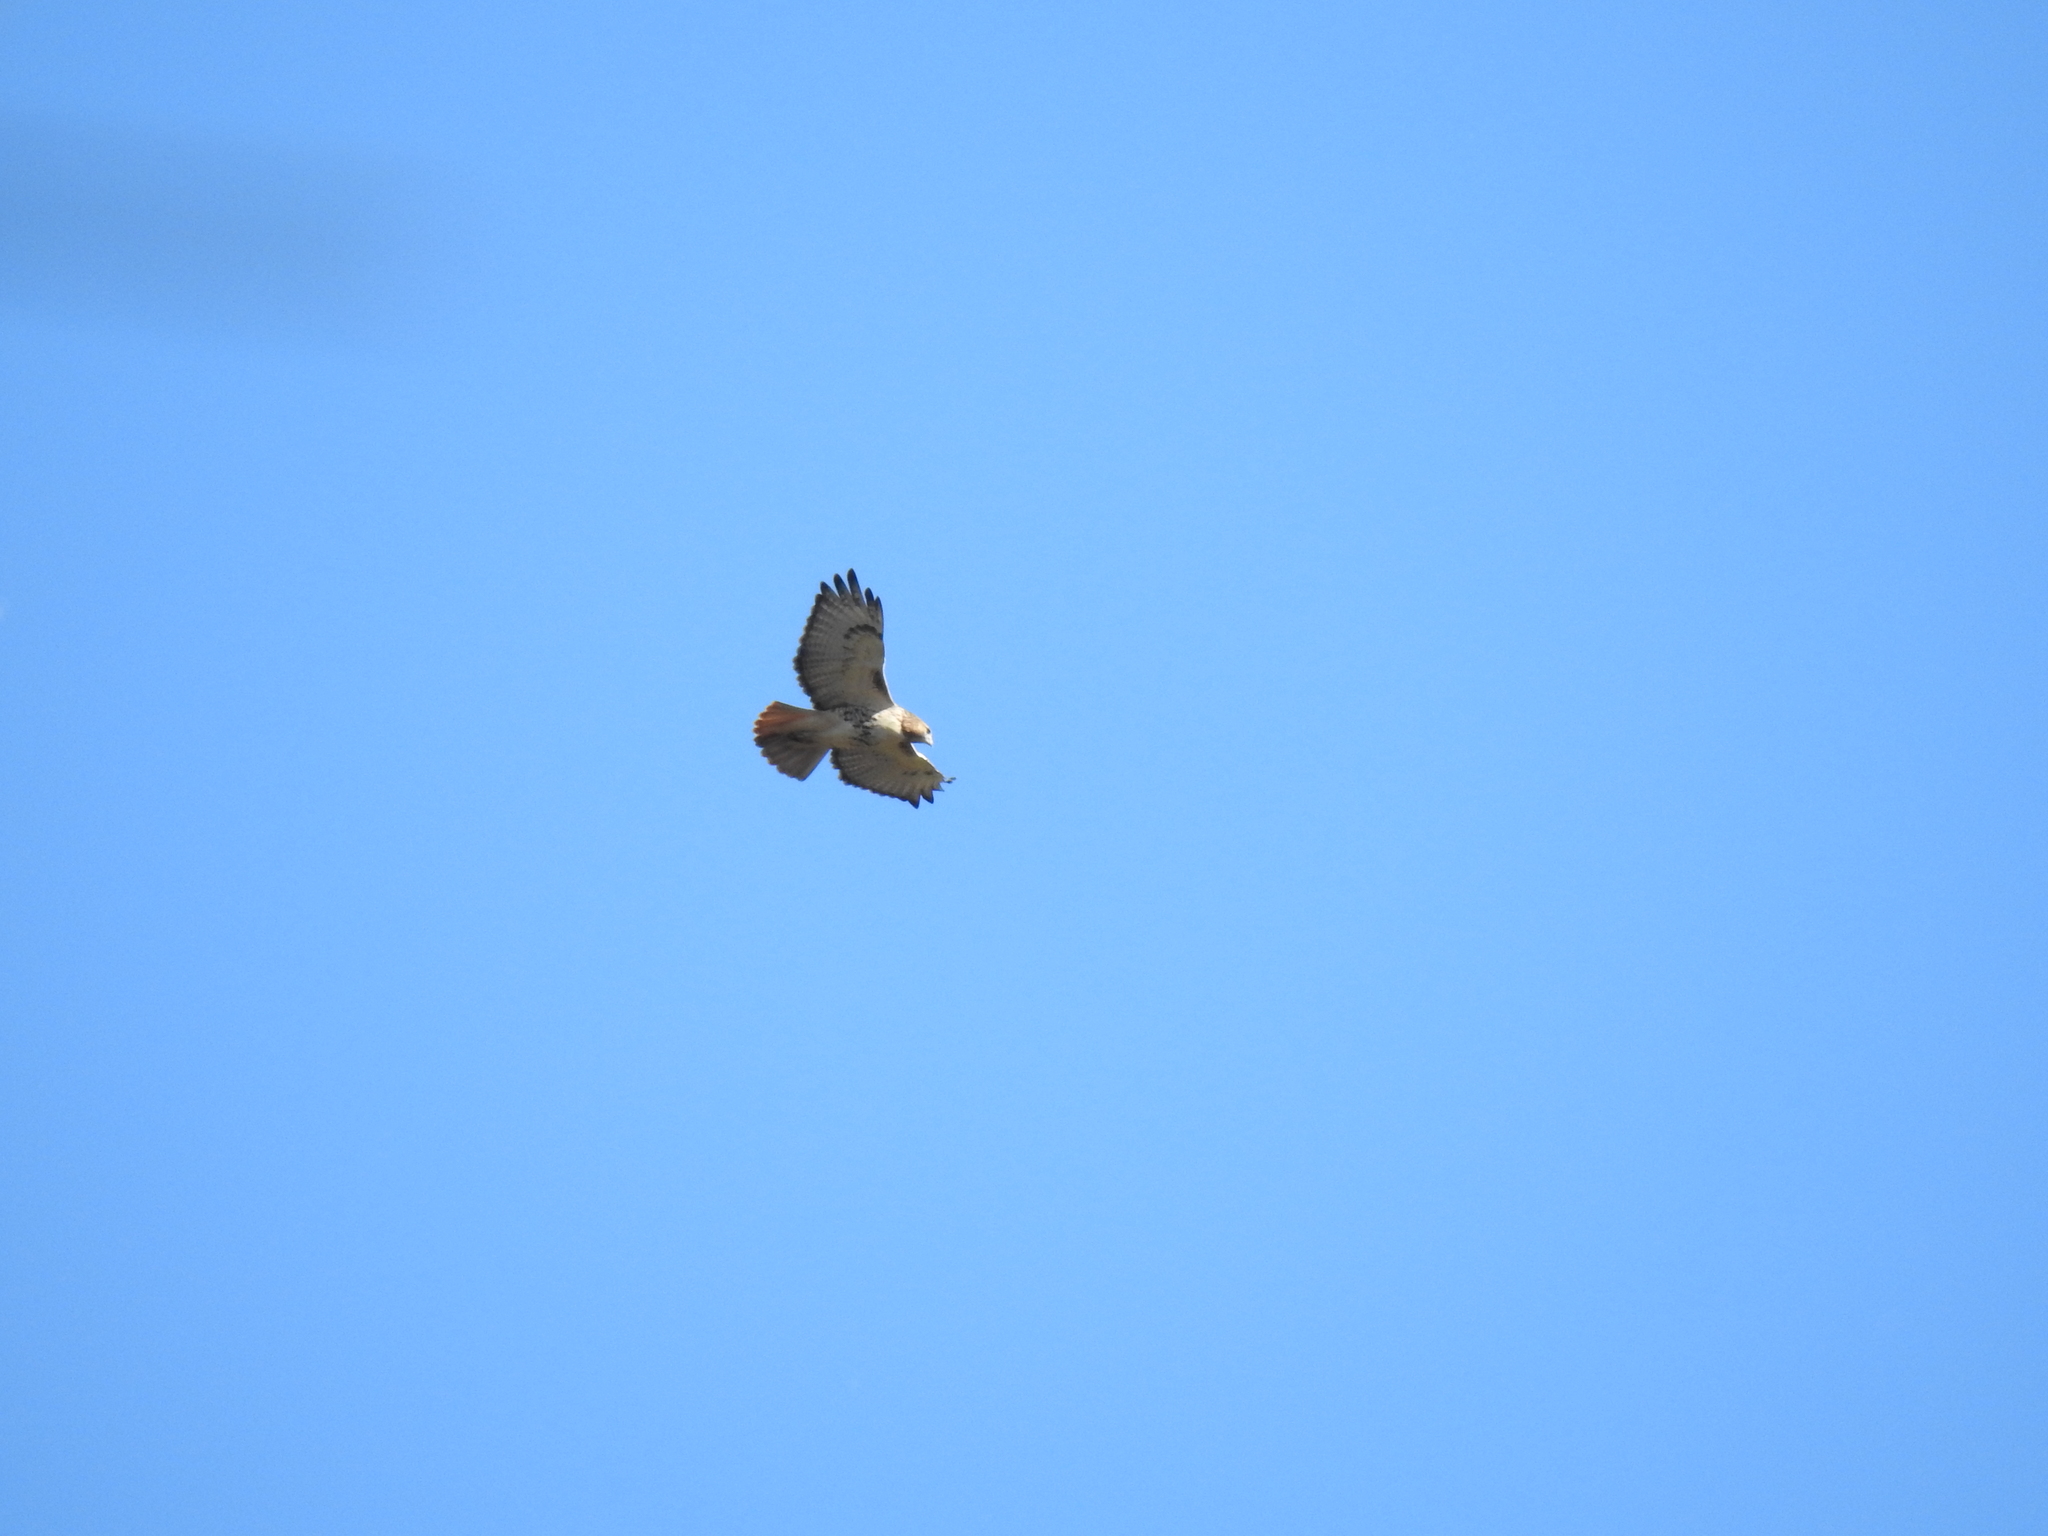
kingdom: Animalia
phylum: Chordata
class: Aves
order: Accipitriformes
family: Accipitridae
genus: Buteo
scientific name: Buteo jamaicensis
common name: Red-tailed hawk
